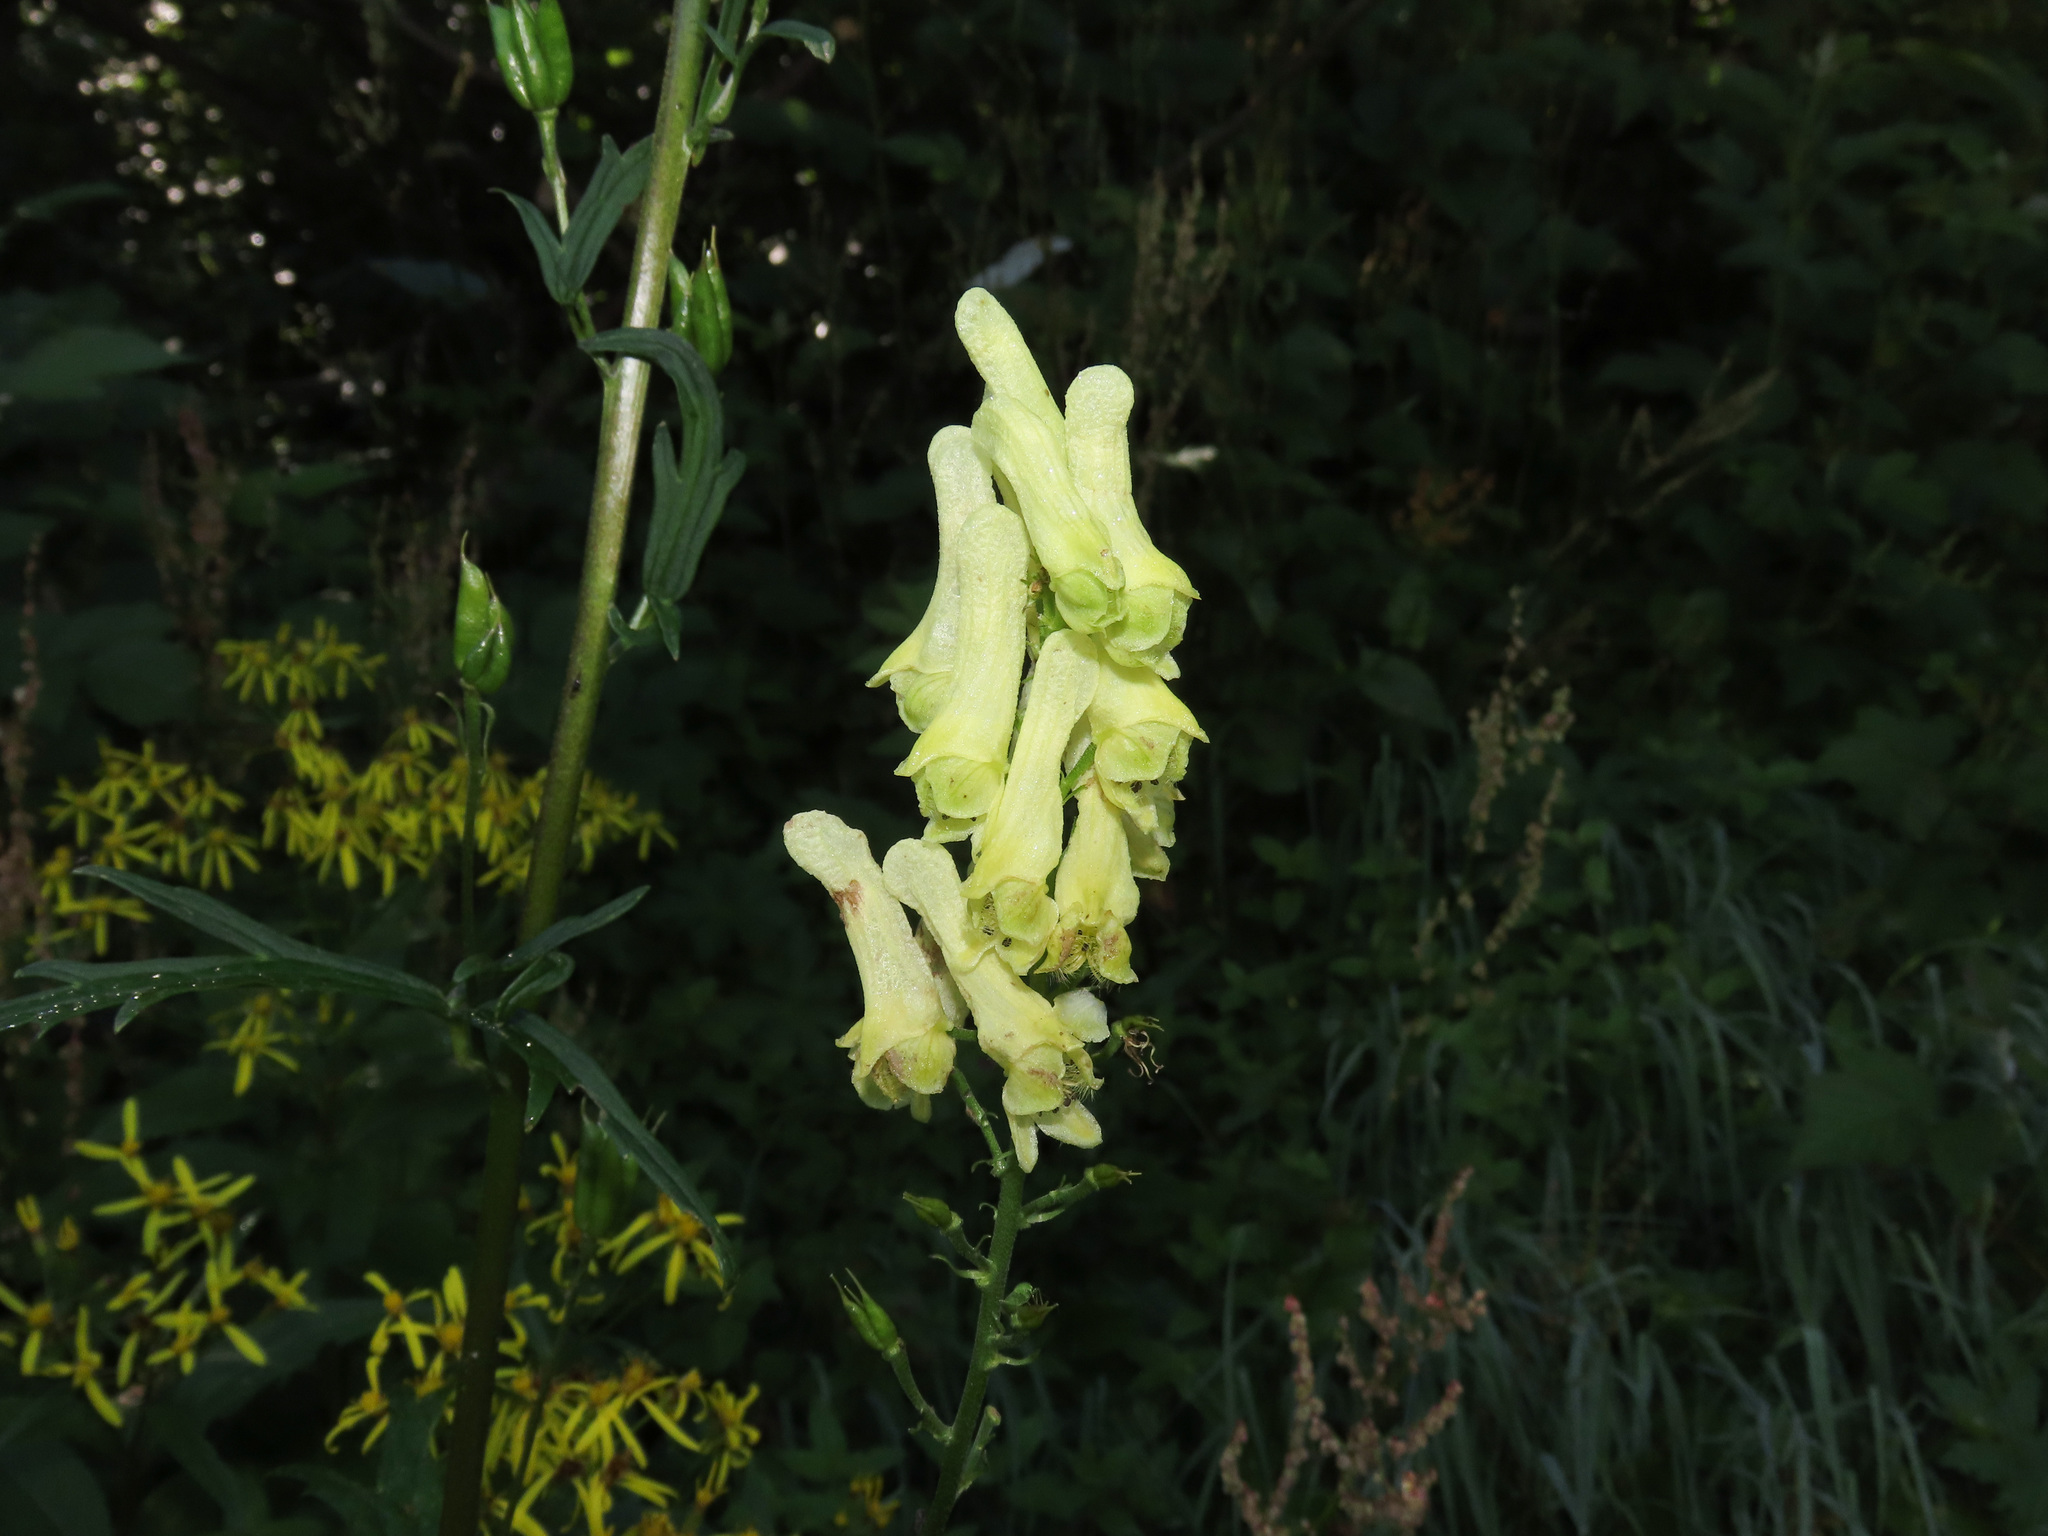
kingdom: Plantae
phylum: Tracheophyta
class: Magnoliopsida
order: Ranunculales
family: Ranunculaceae
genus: Aconitum
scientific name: Aconitum lycoctonum
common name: Wolf's-bane
